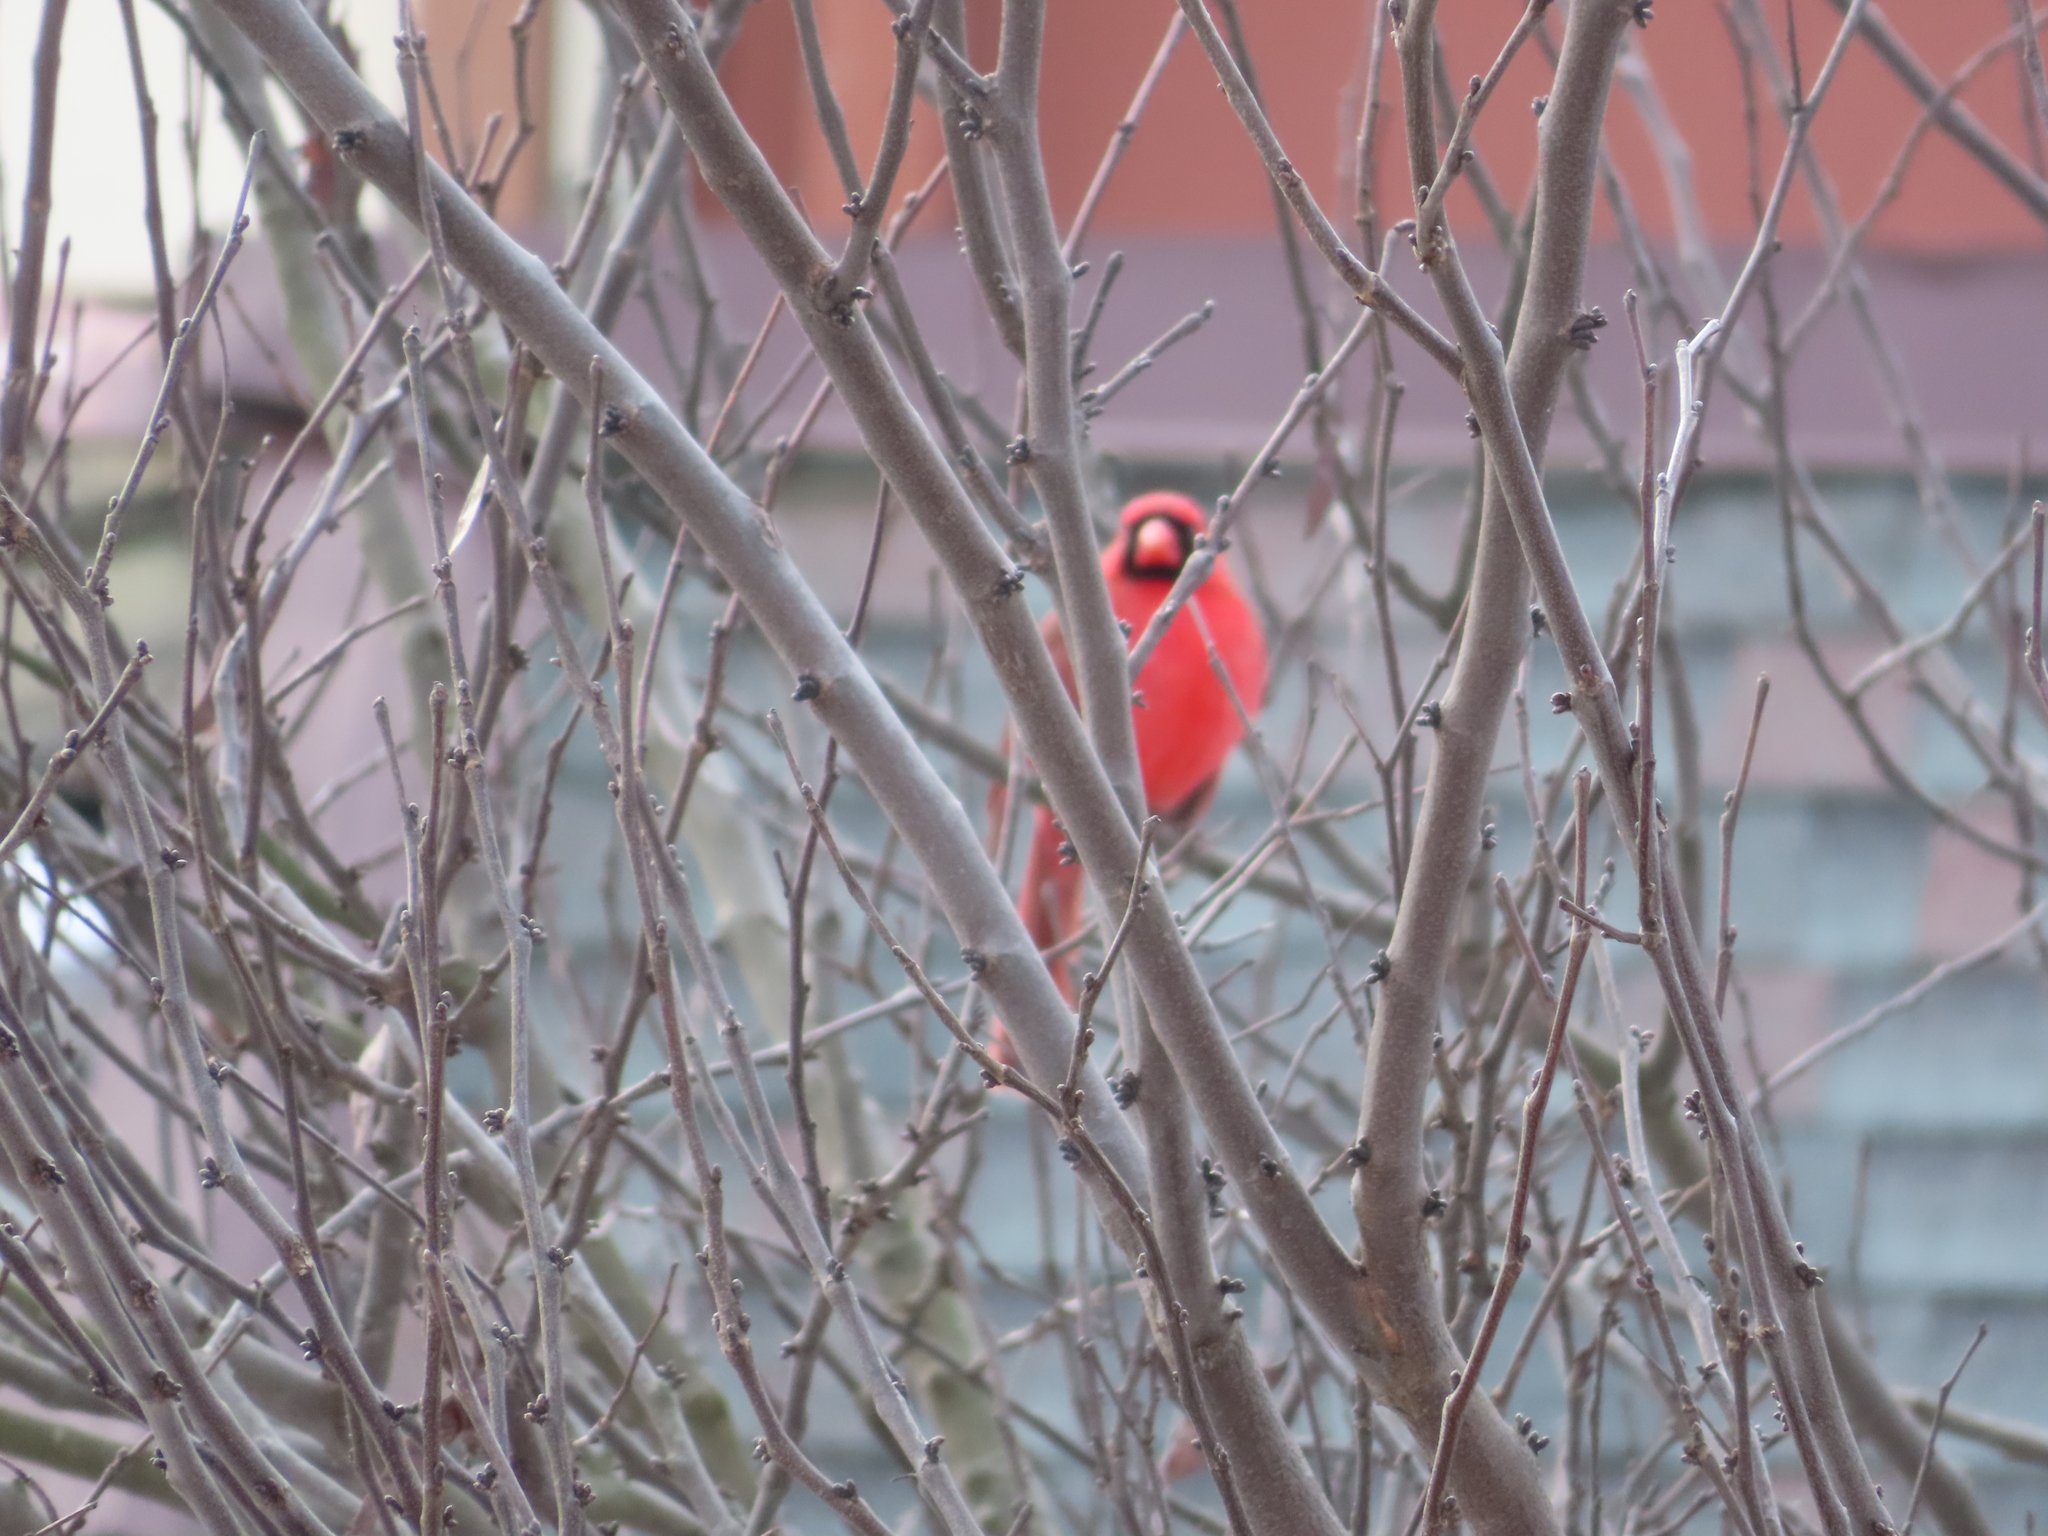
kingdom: Animalia
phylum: Chordata
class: Aves
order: Passeriformes
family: Cardinalidae
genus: Cardinalis
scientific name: Cardinalis cardinalis
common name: Northern cardinal
